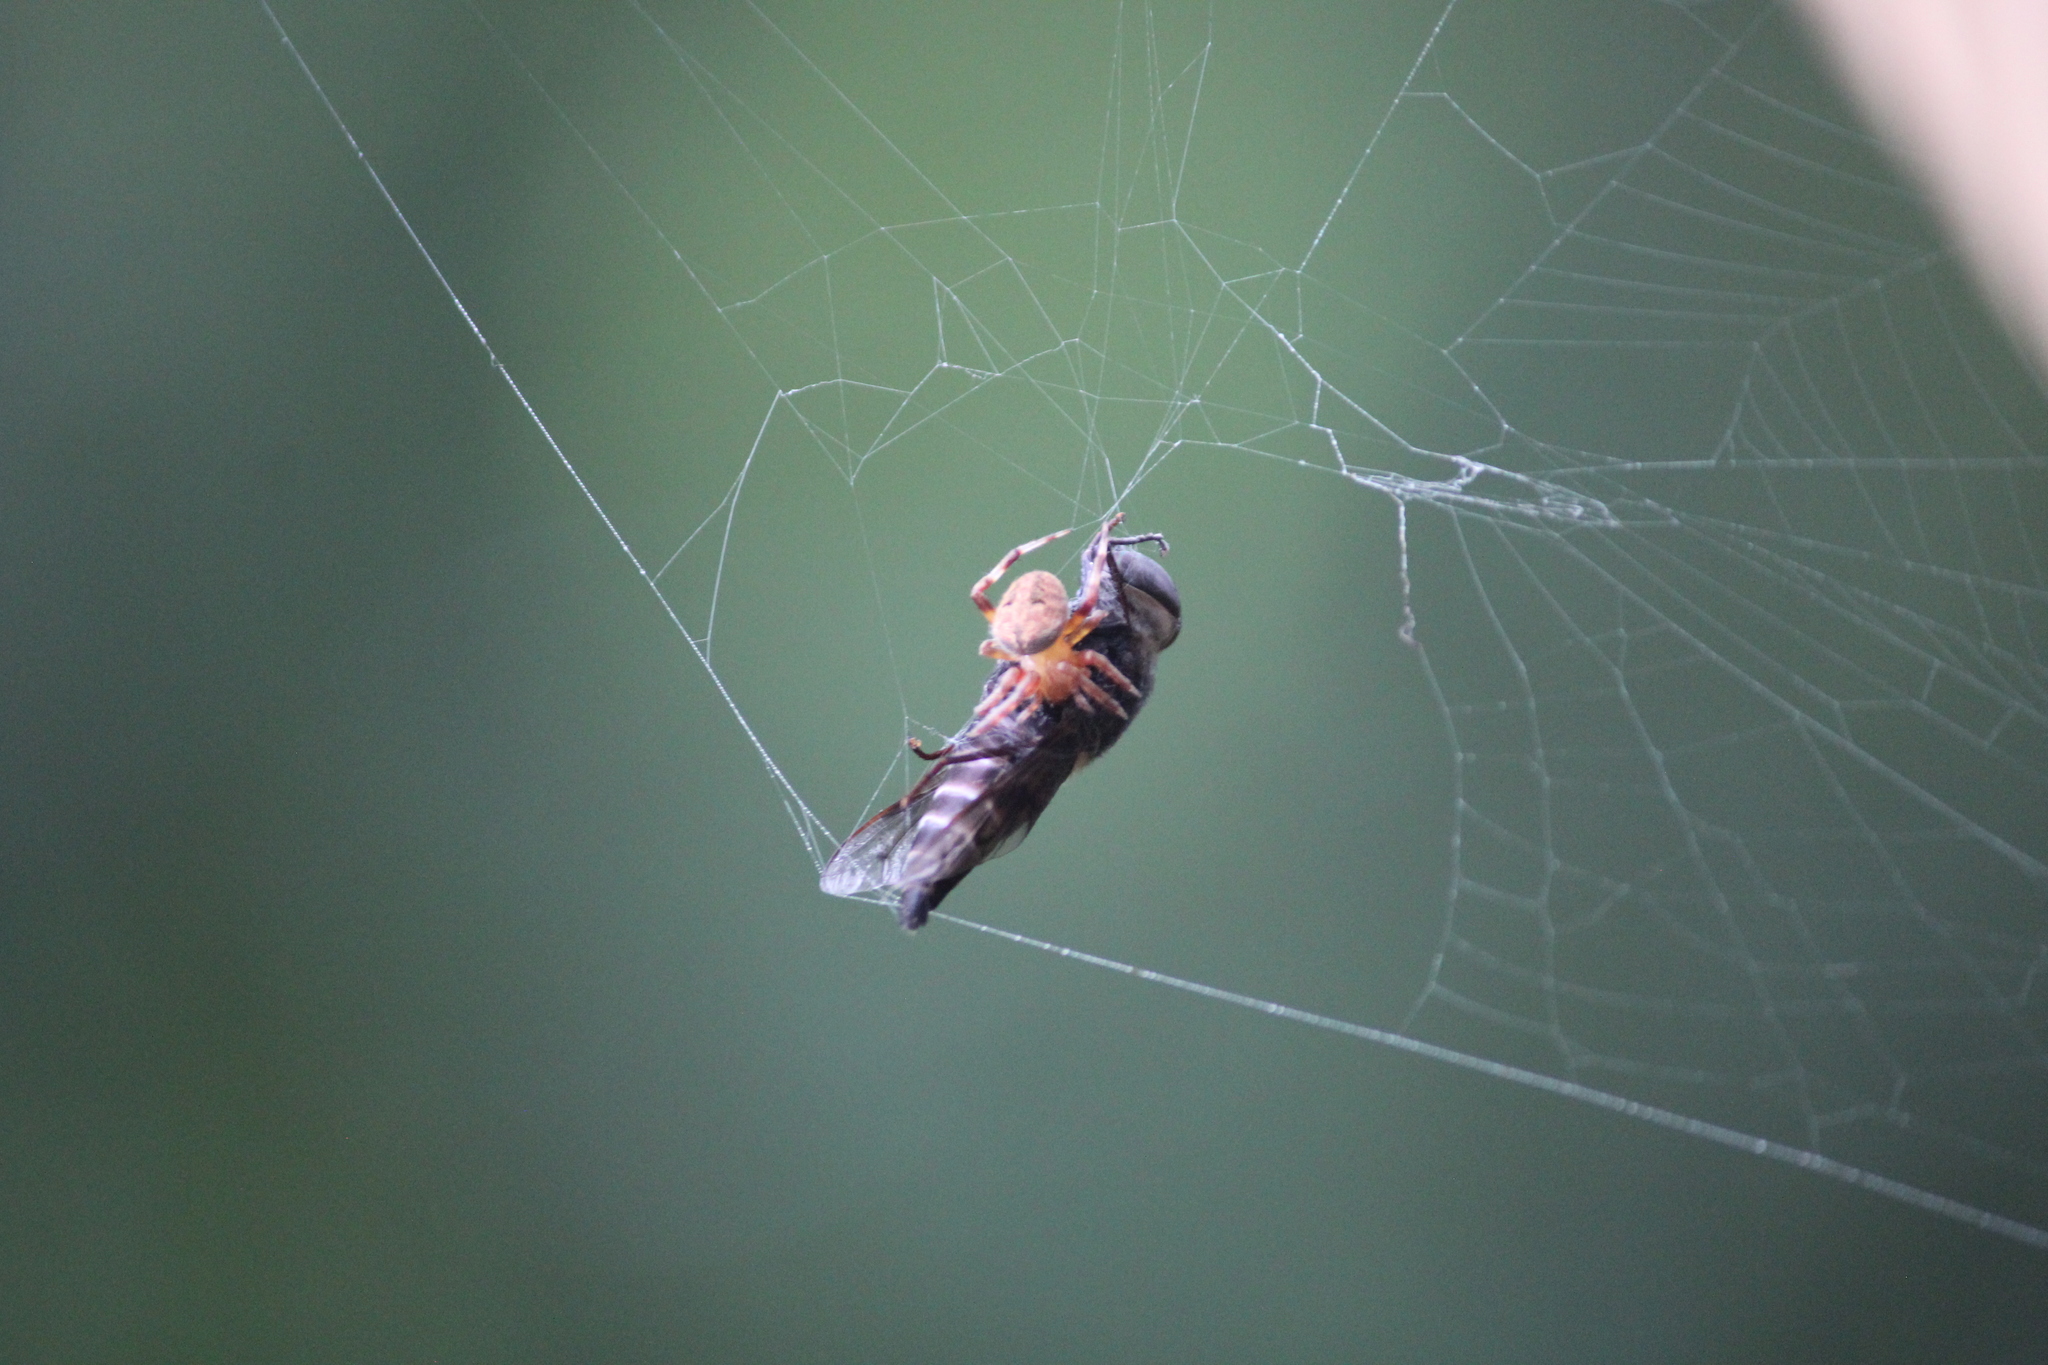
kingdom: Animalia
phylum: Arthropoda
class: Arachnida
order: Araneae
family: Araneidae
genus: Neoscona
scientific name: Neoscona crucifera
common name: Spotted orbweaver
